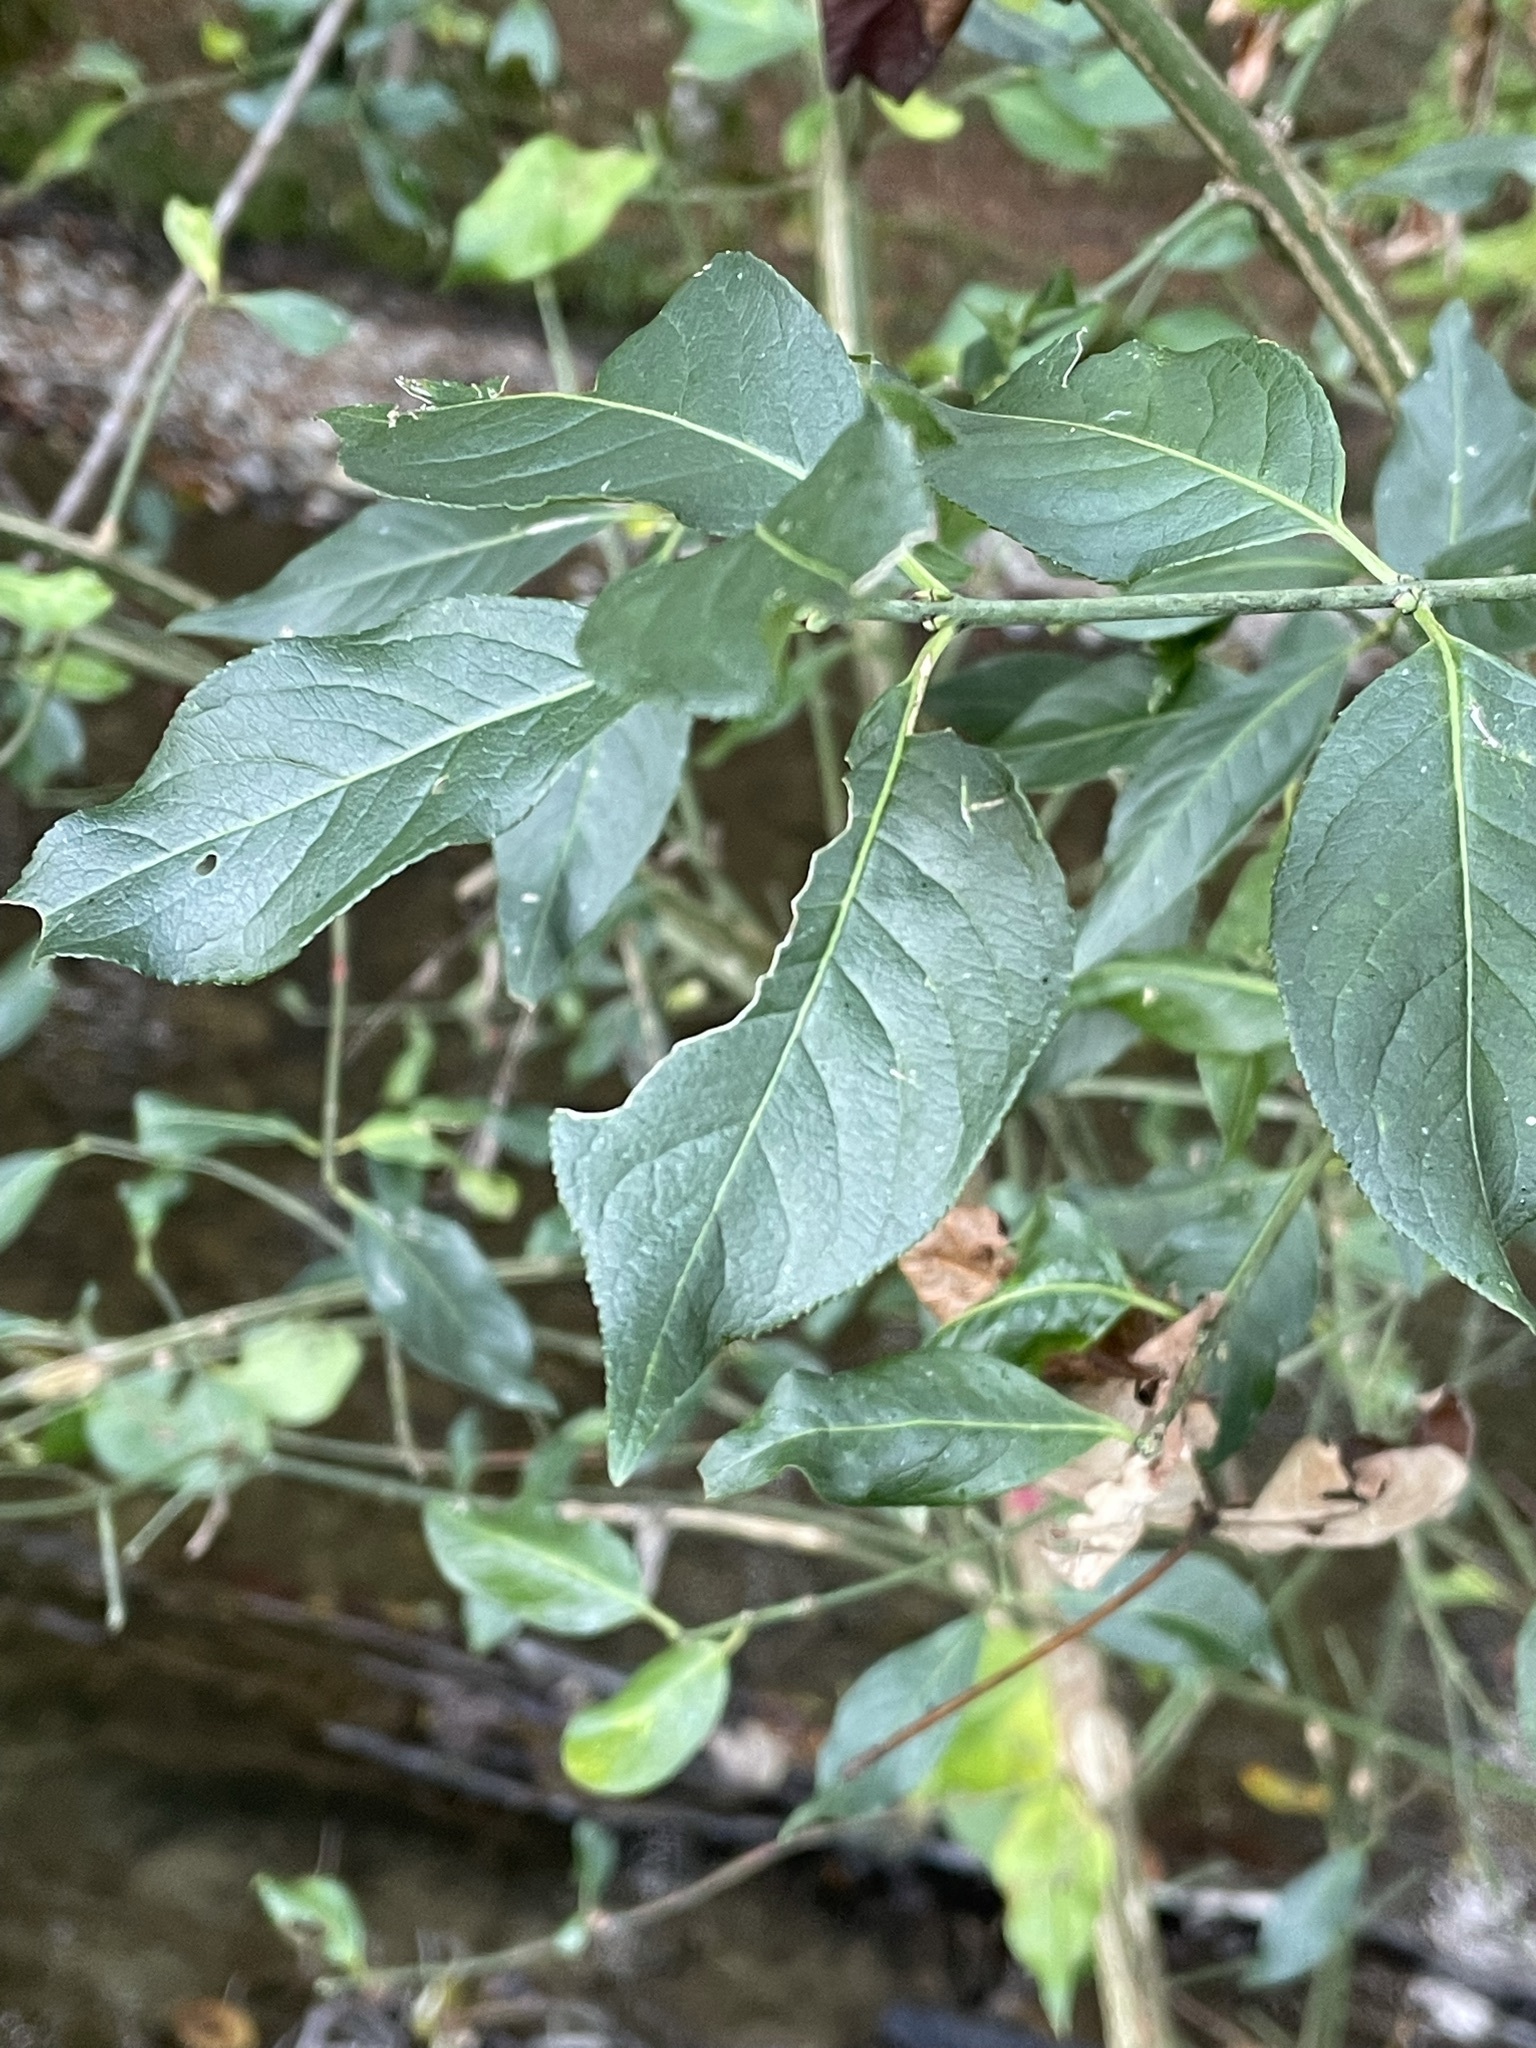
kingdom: Plantae
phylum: Tracheophyta
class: Magnoliopsida
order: Celastrales
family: Celastraceae
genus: Euonymus
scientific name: Euonymus europaeus
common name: Spindle
